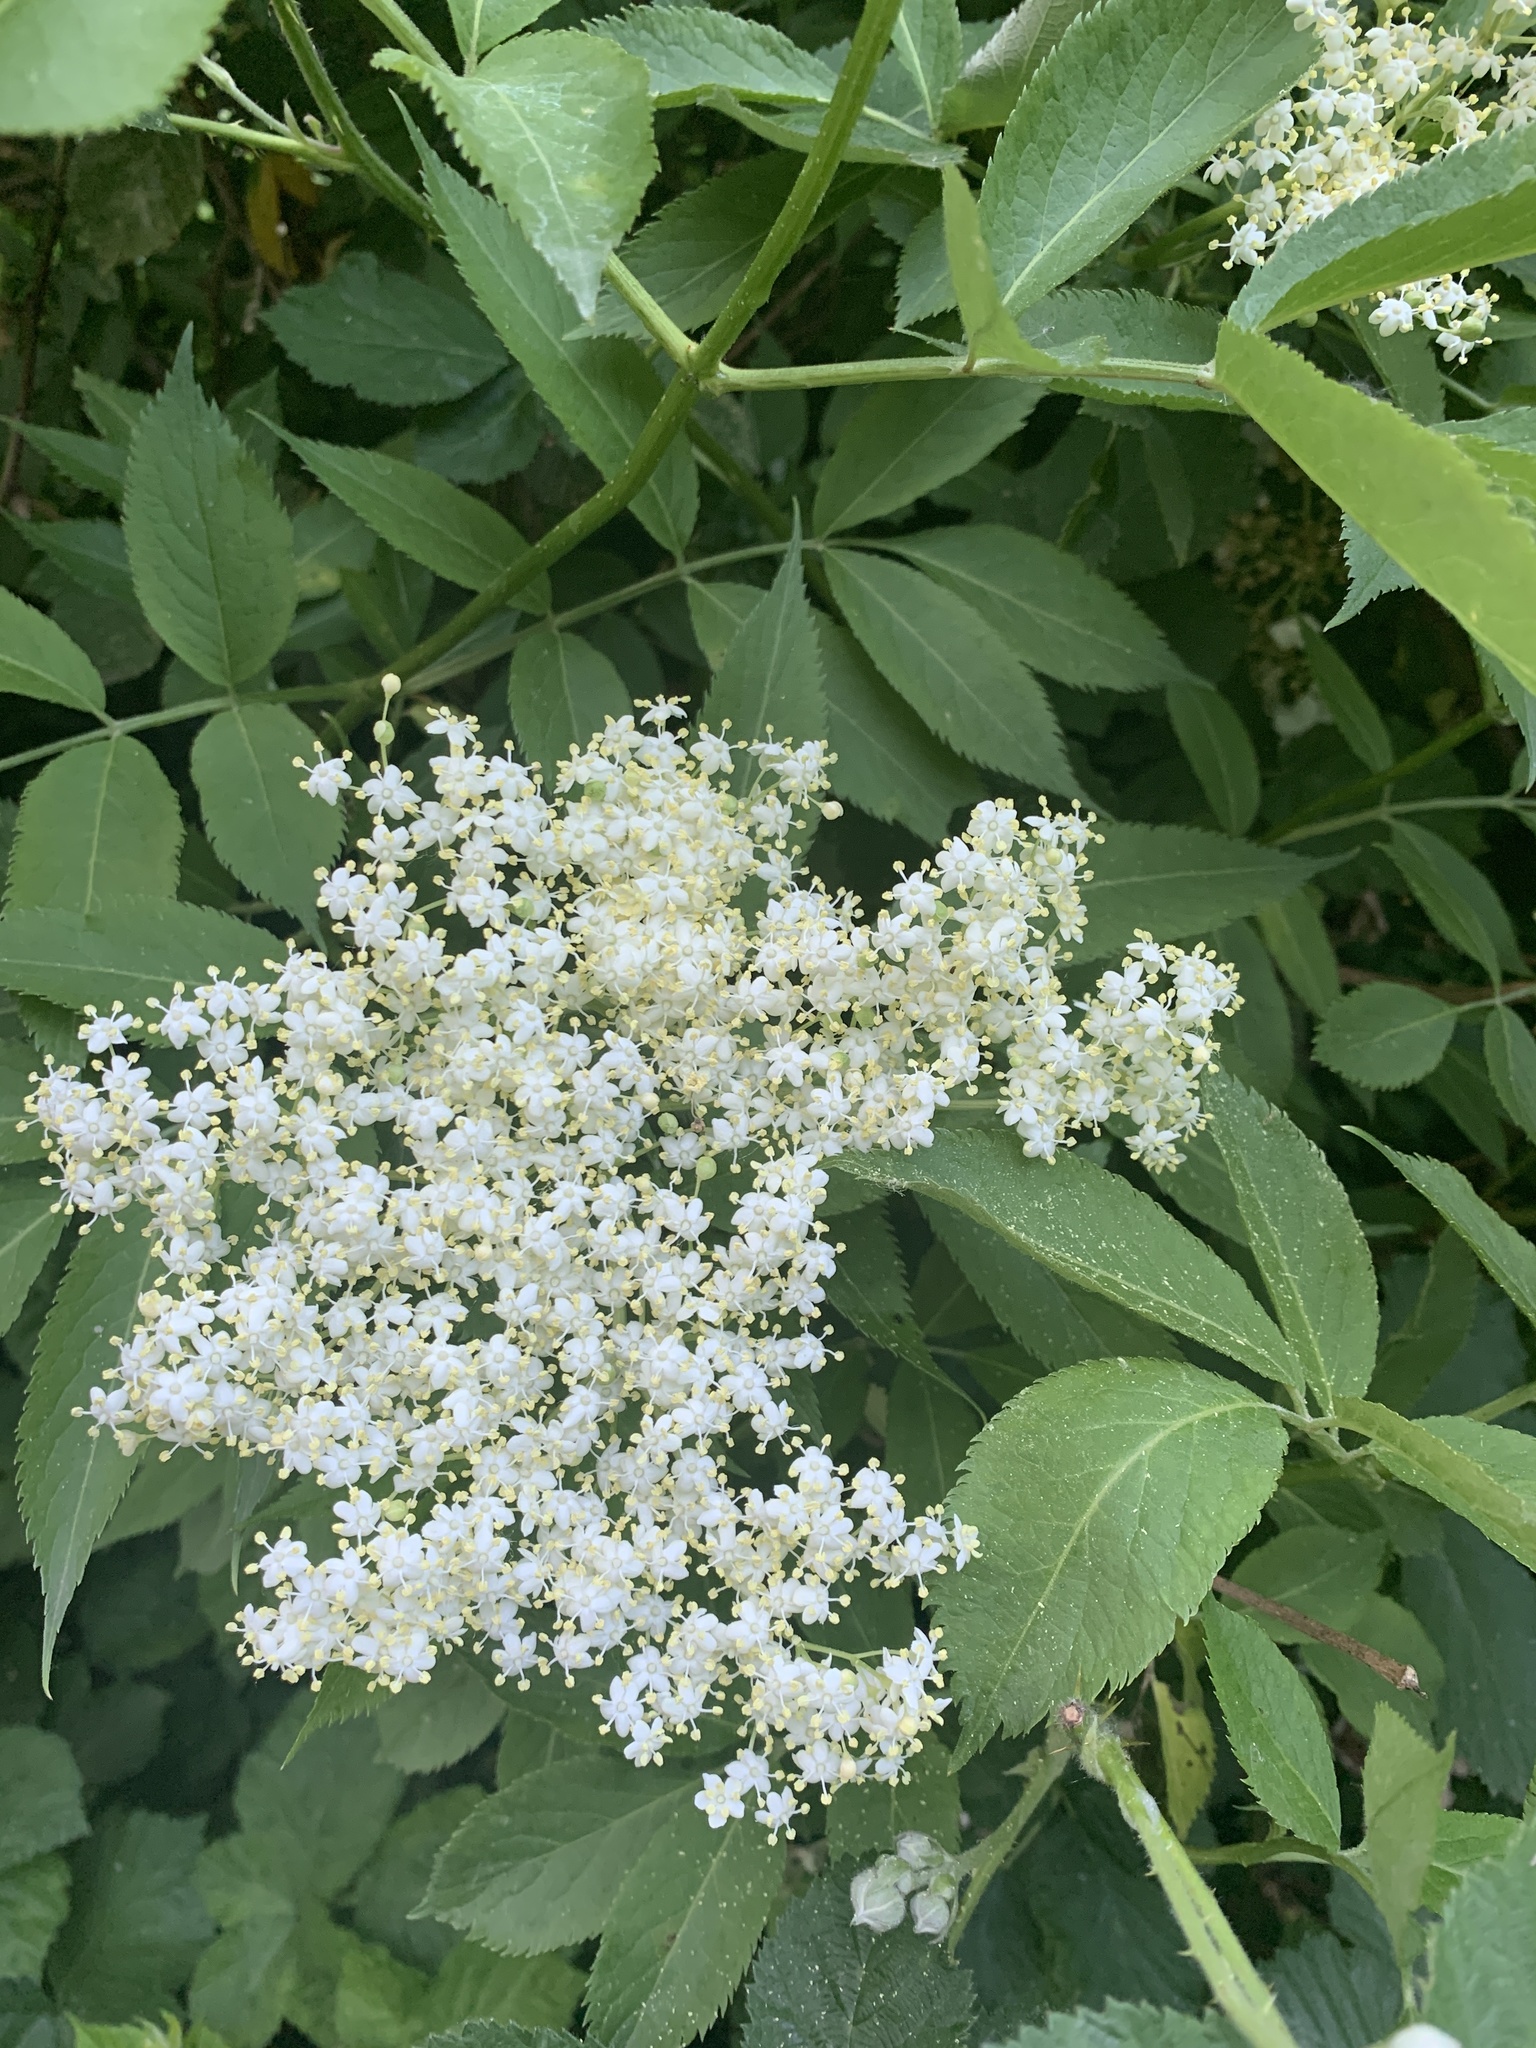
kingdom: Plantae
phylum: Tracheophyta
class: Magnoliopsida
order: Dipsacales
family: Viburnaceae
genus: Sambucus
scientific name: Sambucus nigra
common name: Elder
